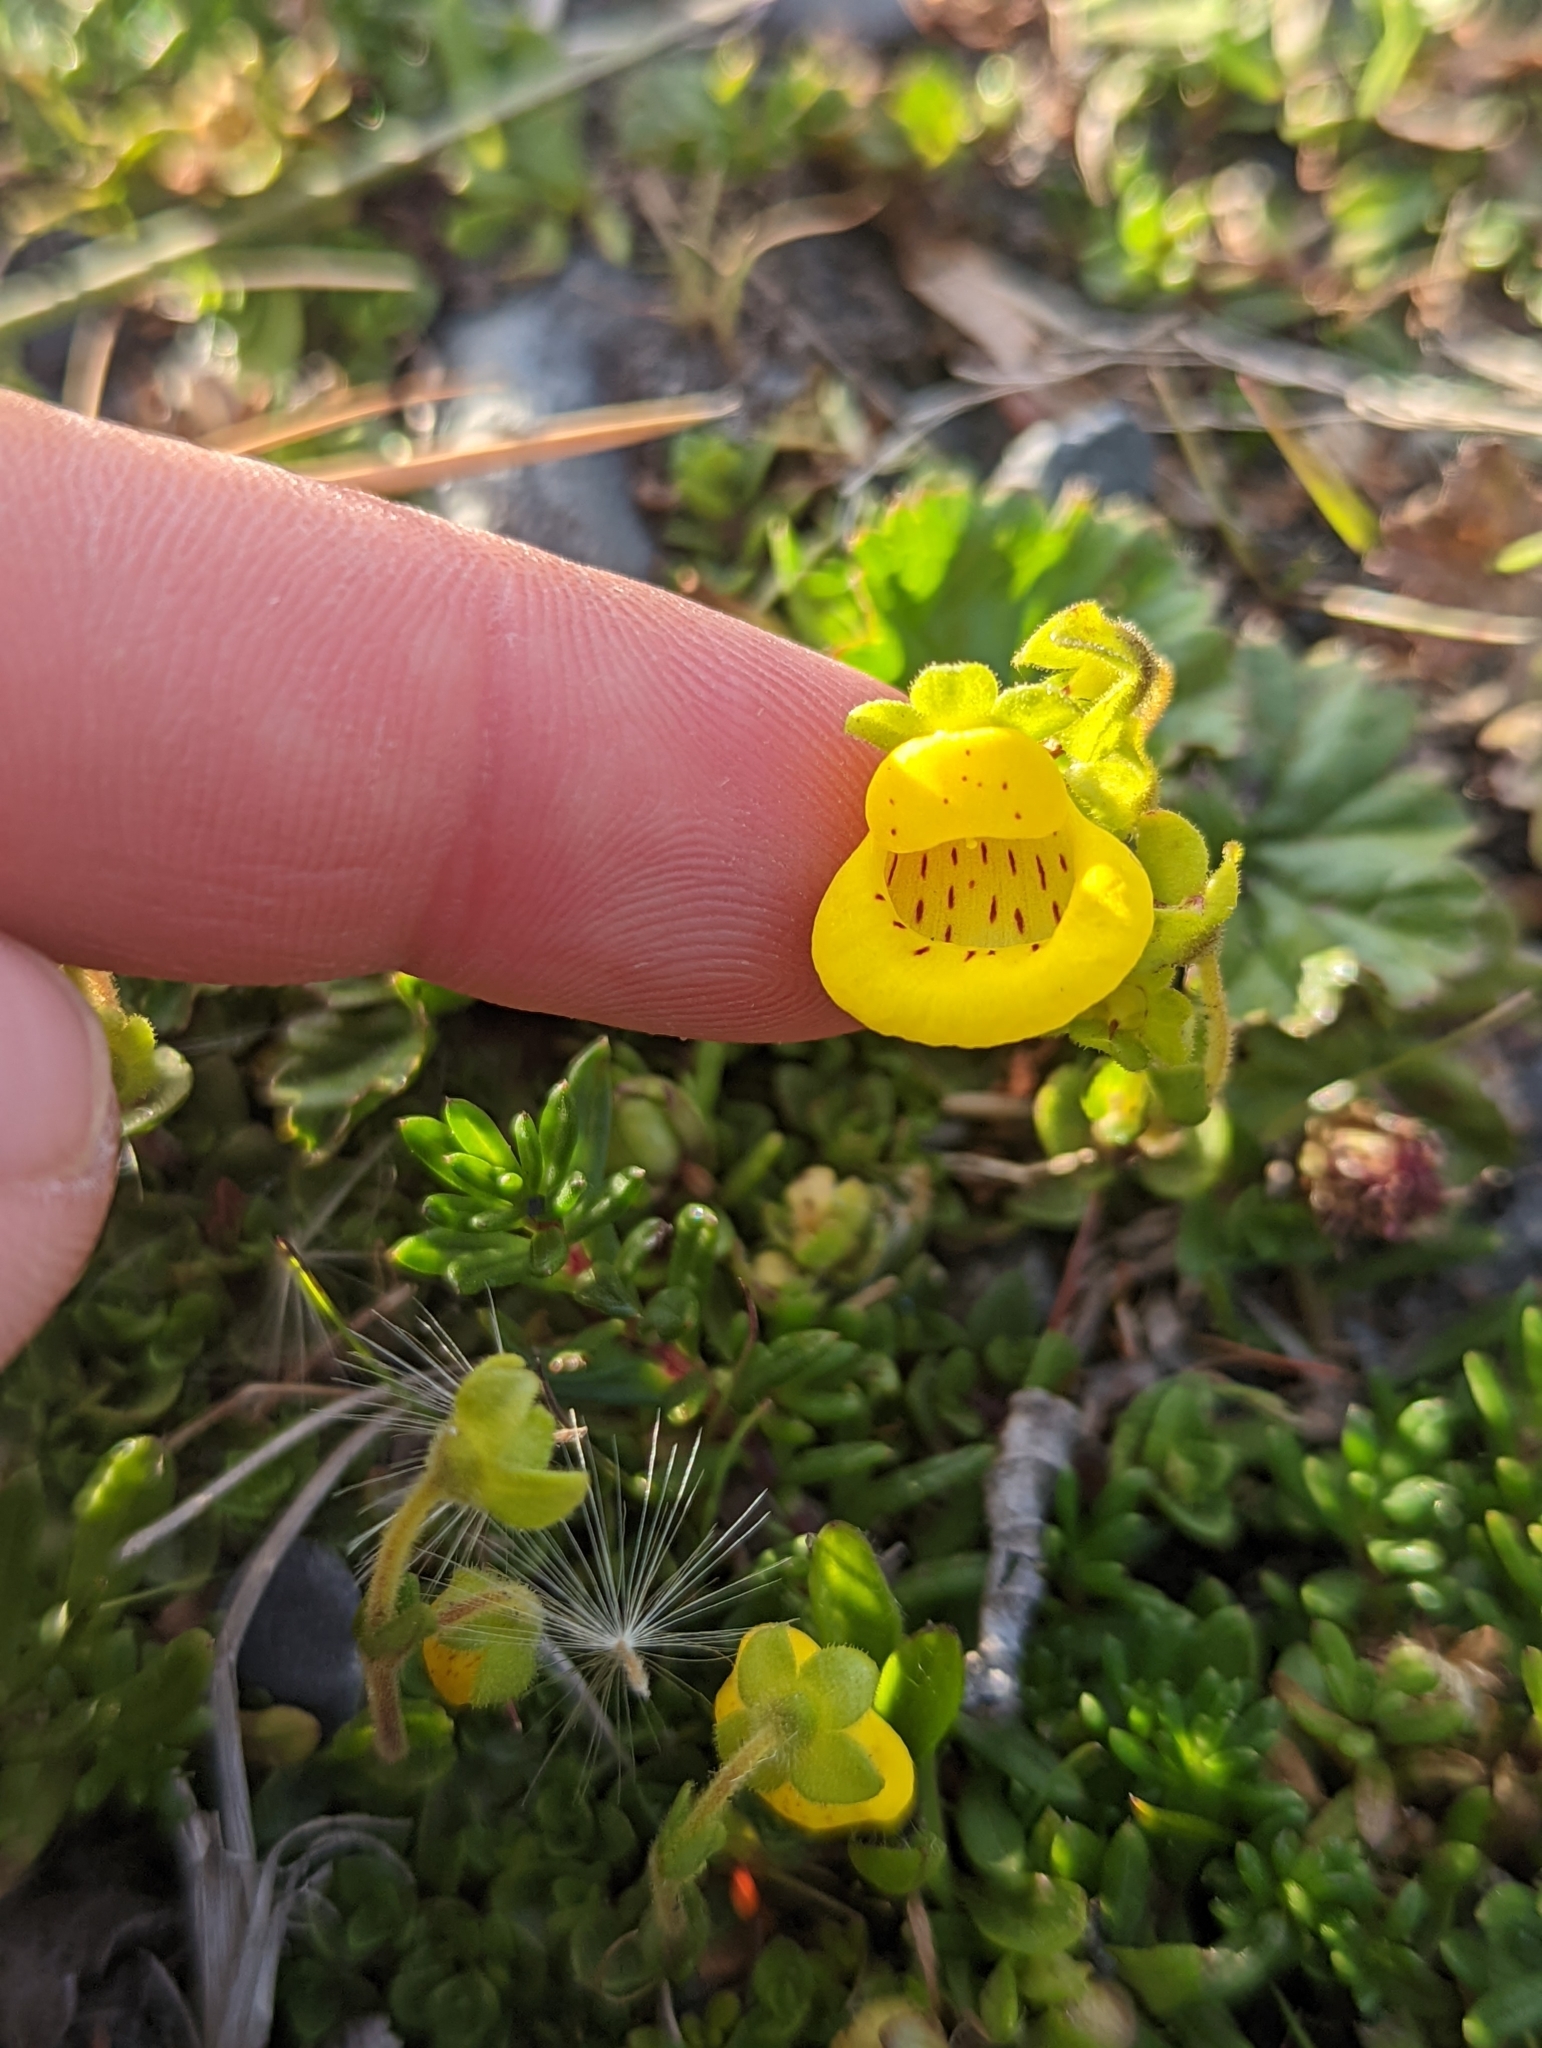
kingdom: Plantae
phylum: Tracheophyta
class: Magnoliopsida
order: Lamiales
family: Calceolariaceae
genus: Calceolaria
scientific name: Calceolaria tenella
